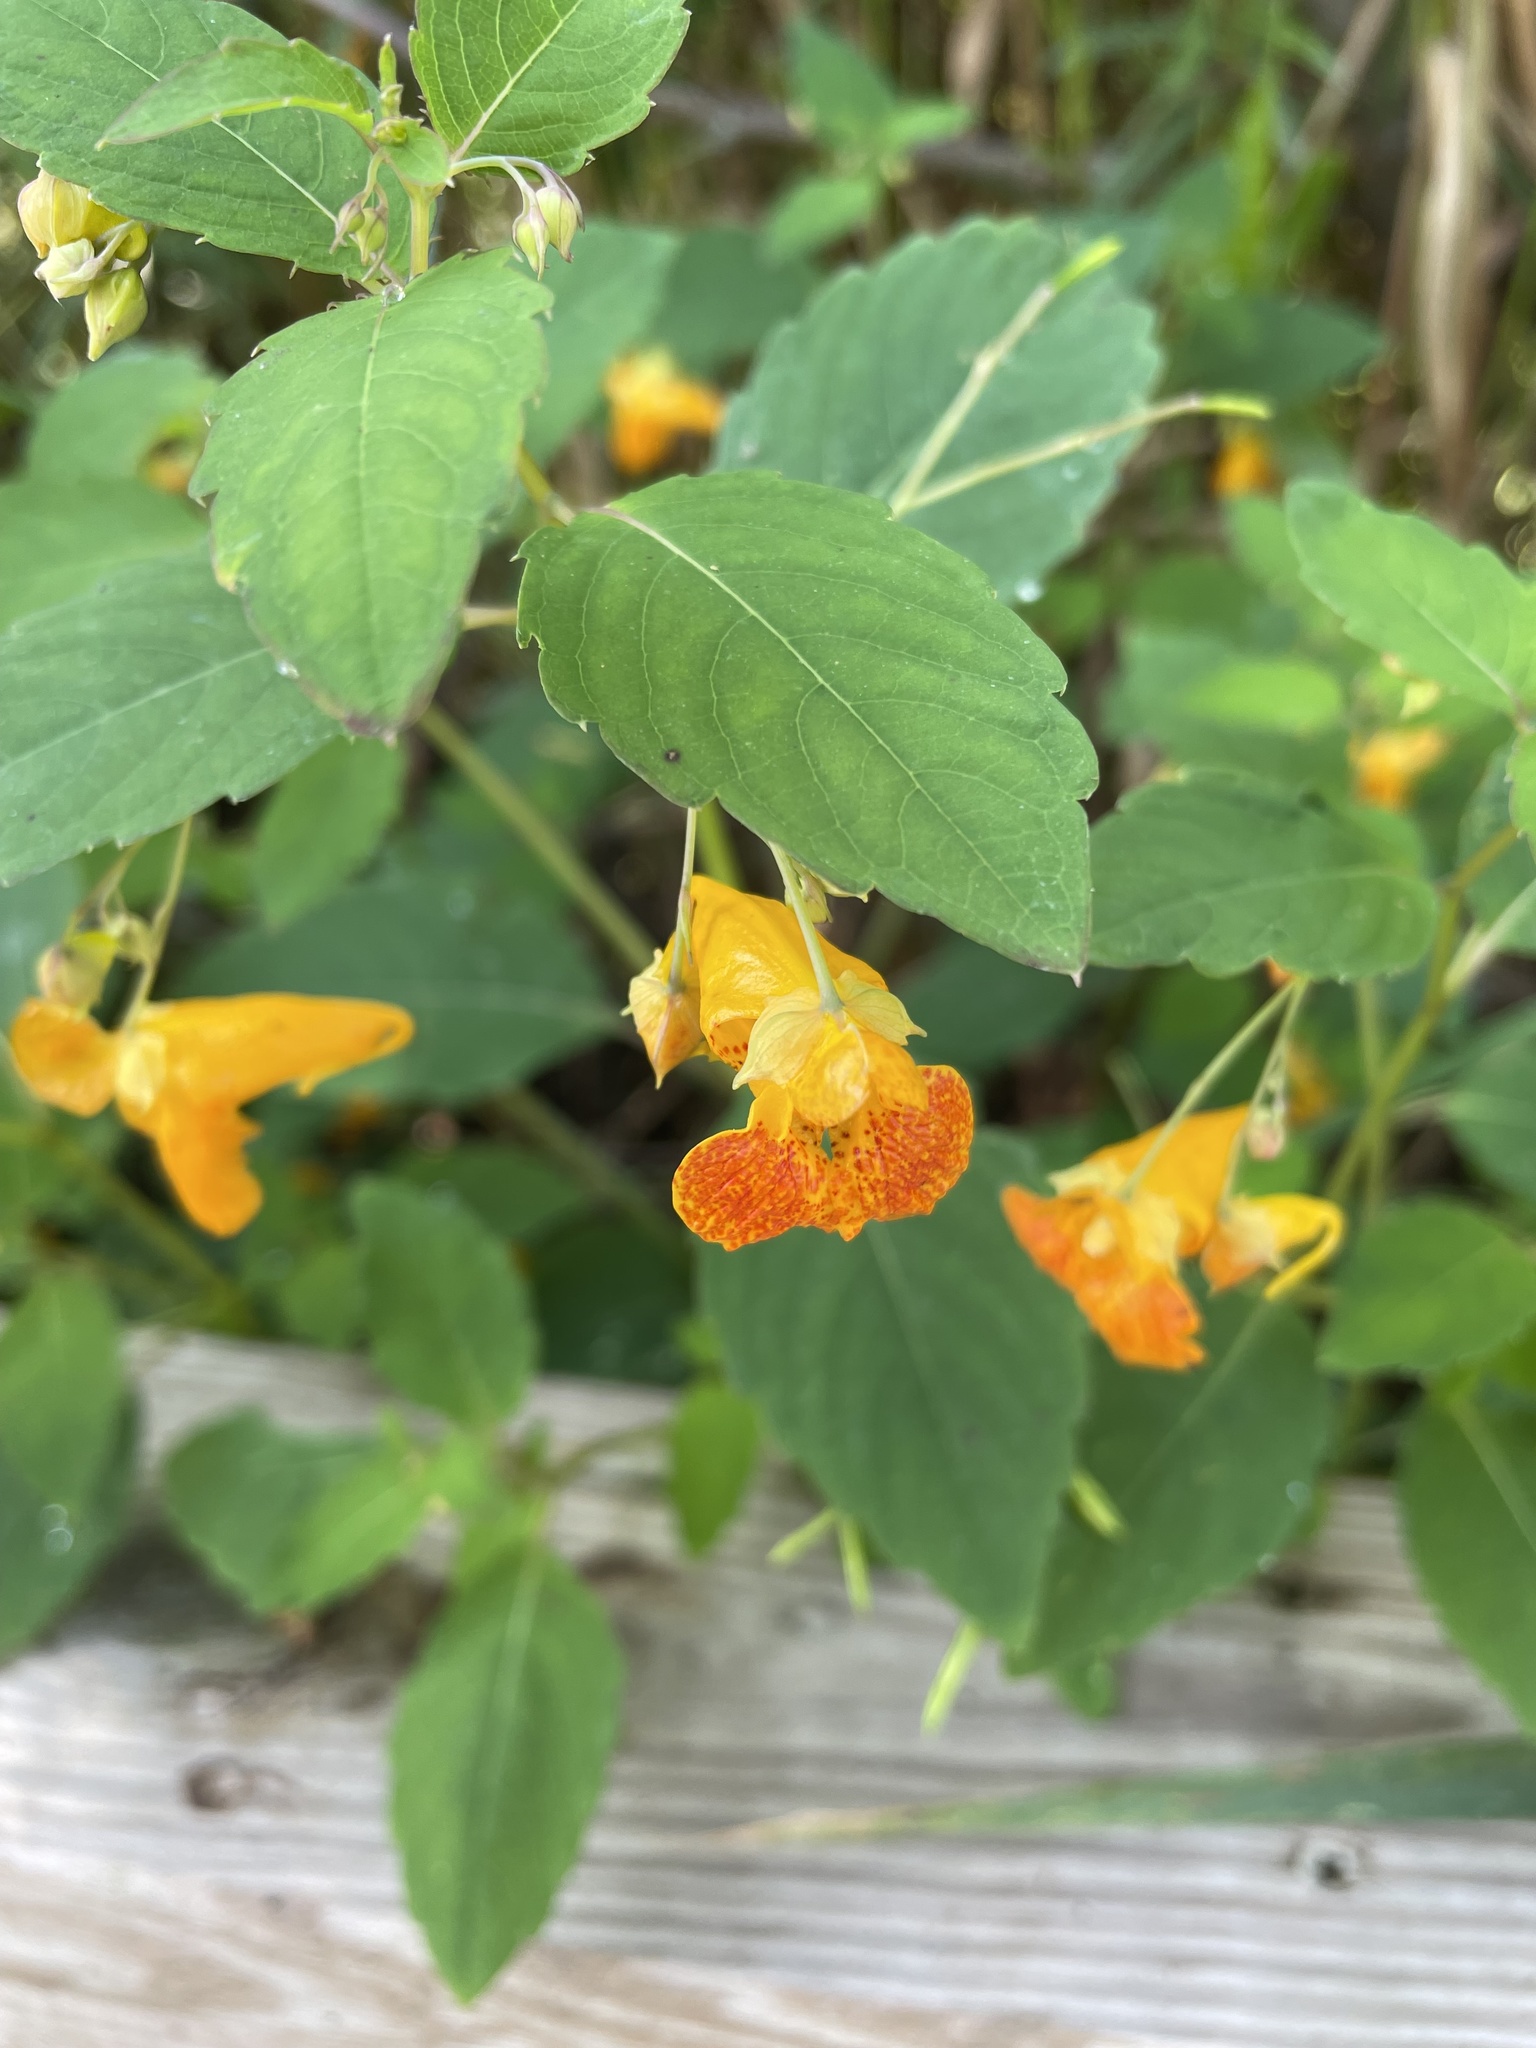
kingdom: Plantae
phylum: Tracheophyta
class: Magnoliopsida
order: Ericales
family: Balsaminaceae
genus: Impatiens
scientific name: Impatiens capensis
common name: Orange balsam
